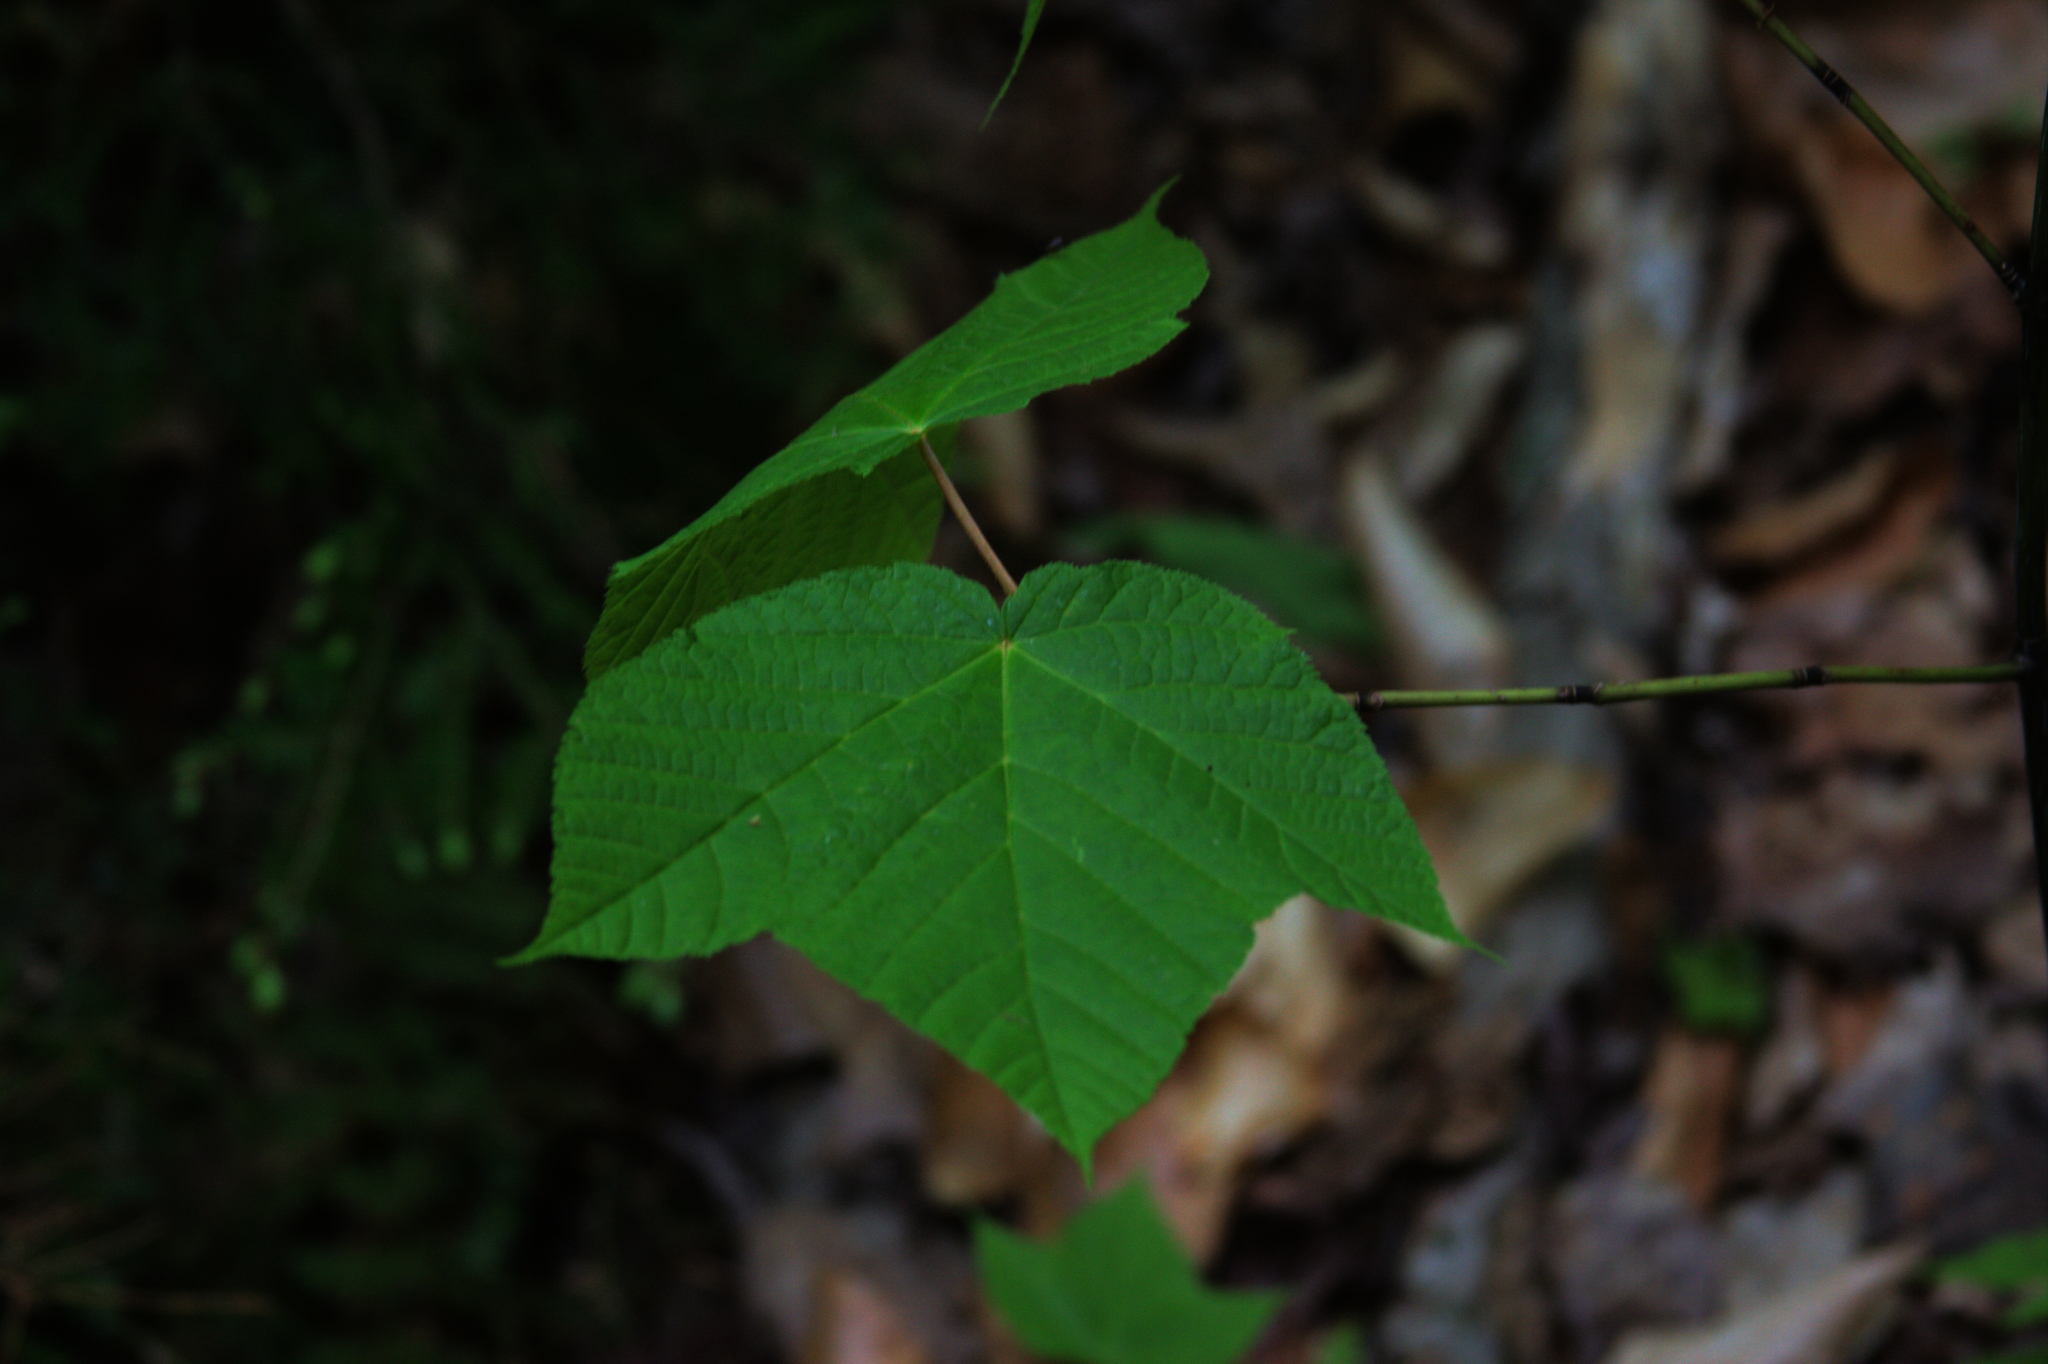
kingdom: Plantae
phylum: Tracheophyta
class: Magnoliopsida
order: Sapindales
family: Sapindaceae
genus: Acer
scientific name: Acer pensylvanicum
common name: Moosewood
